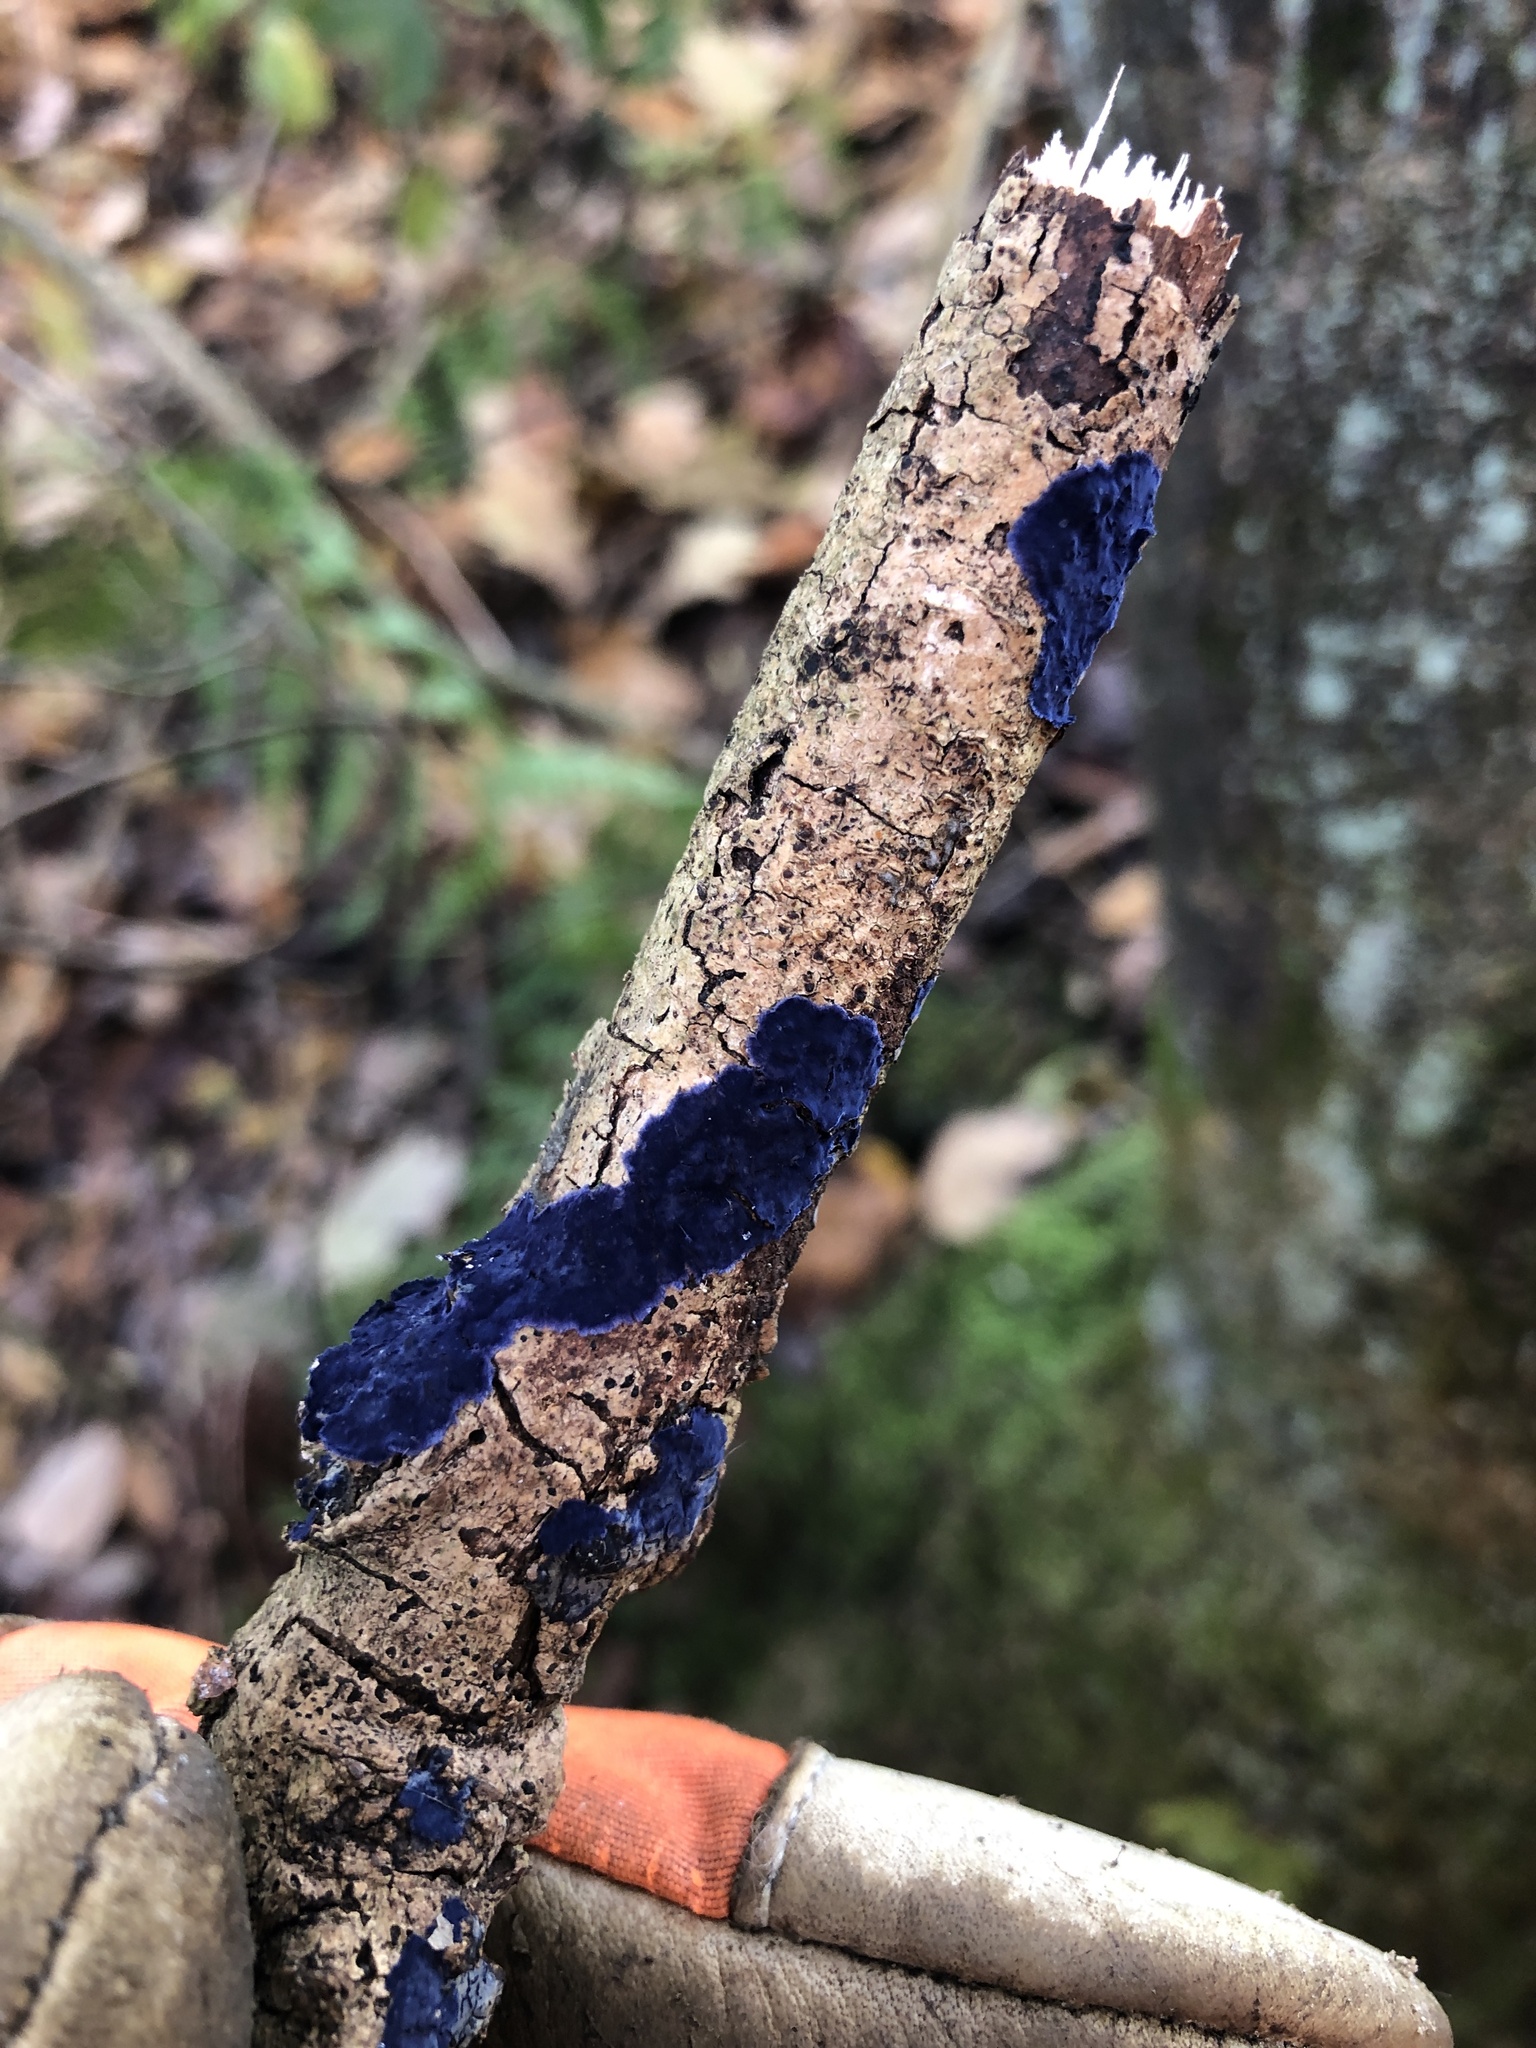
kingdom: Fungi
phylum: Basidiomycota
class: Agaricomycetes
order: Polyporales
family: Phanerochaetaceae
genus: Terana
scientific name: Terana coerulea
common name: Cobalt crust
